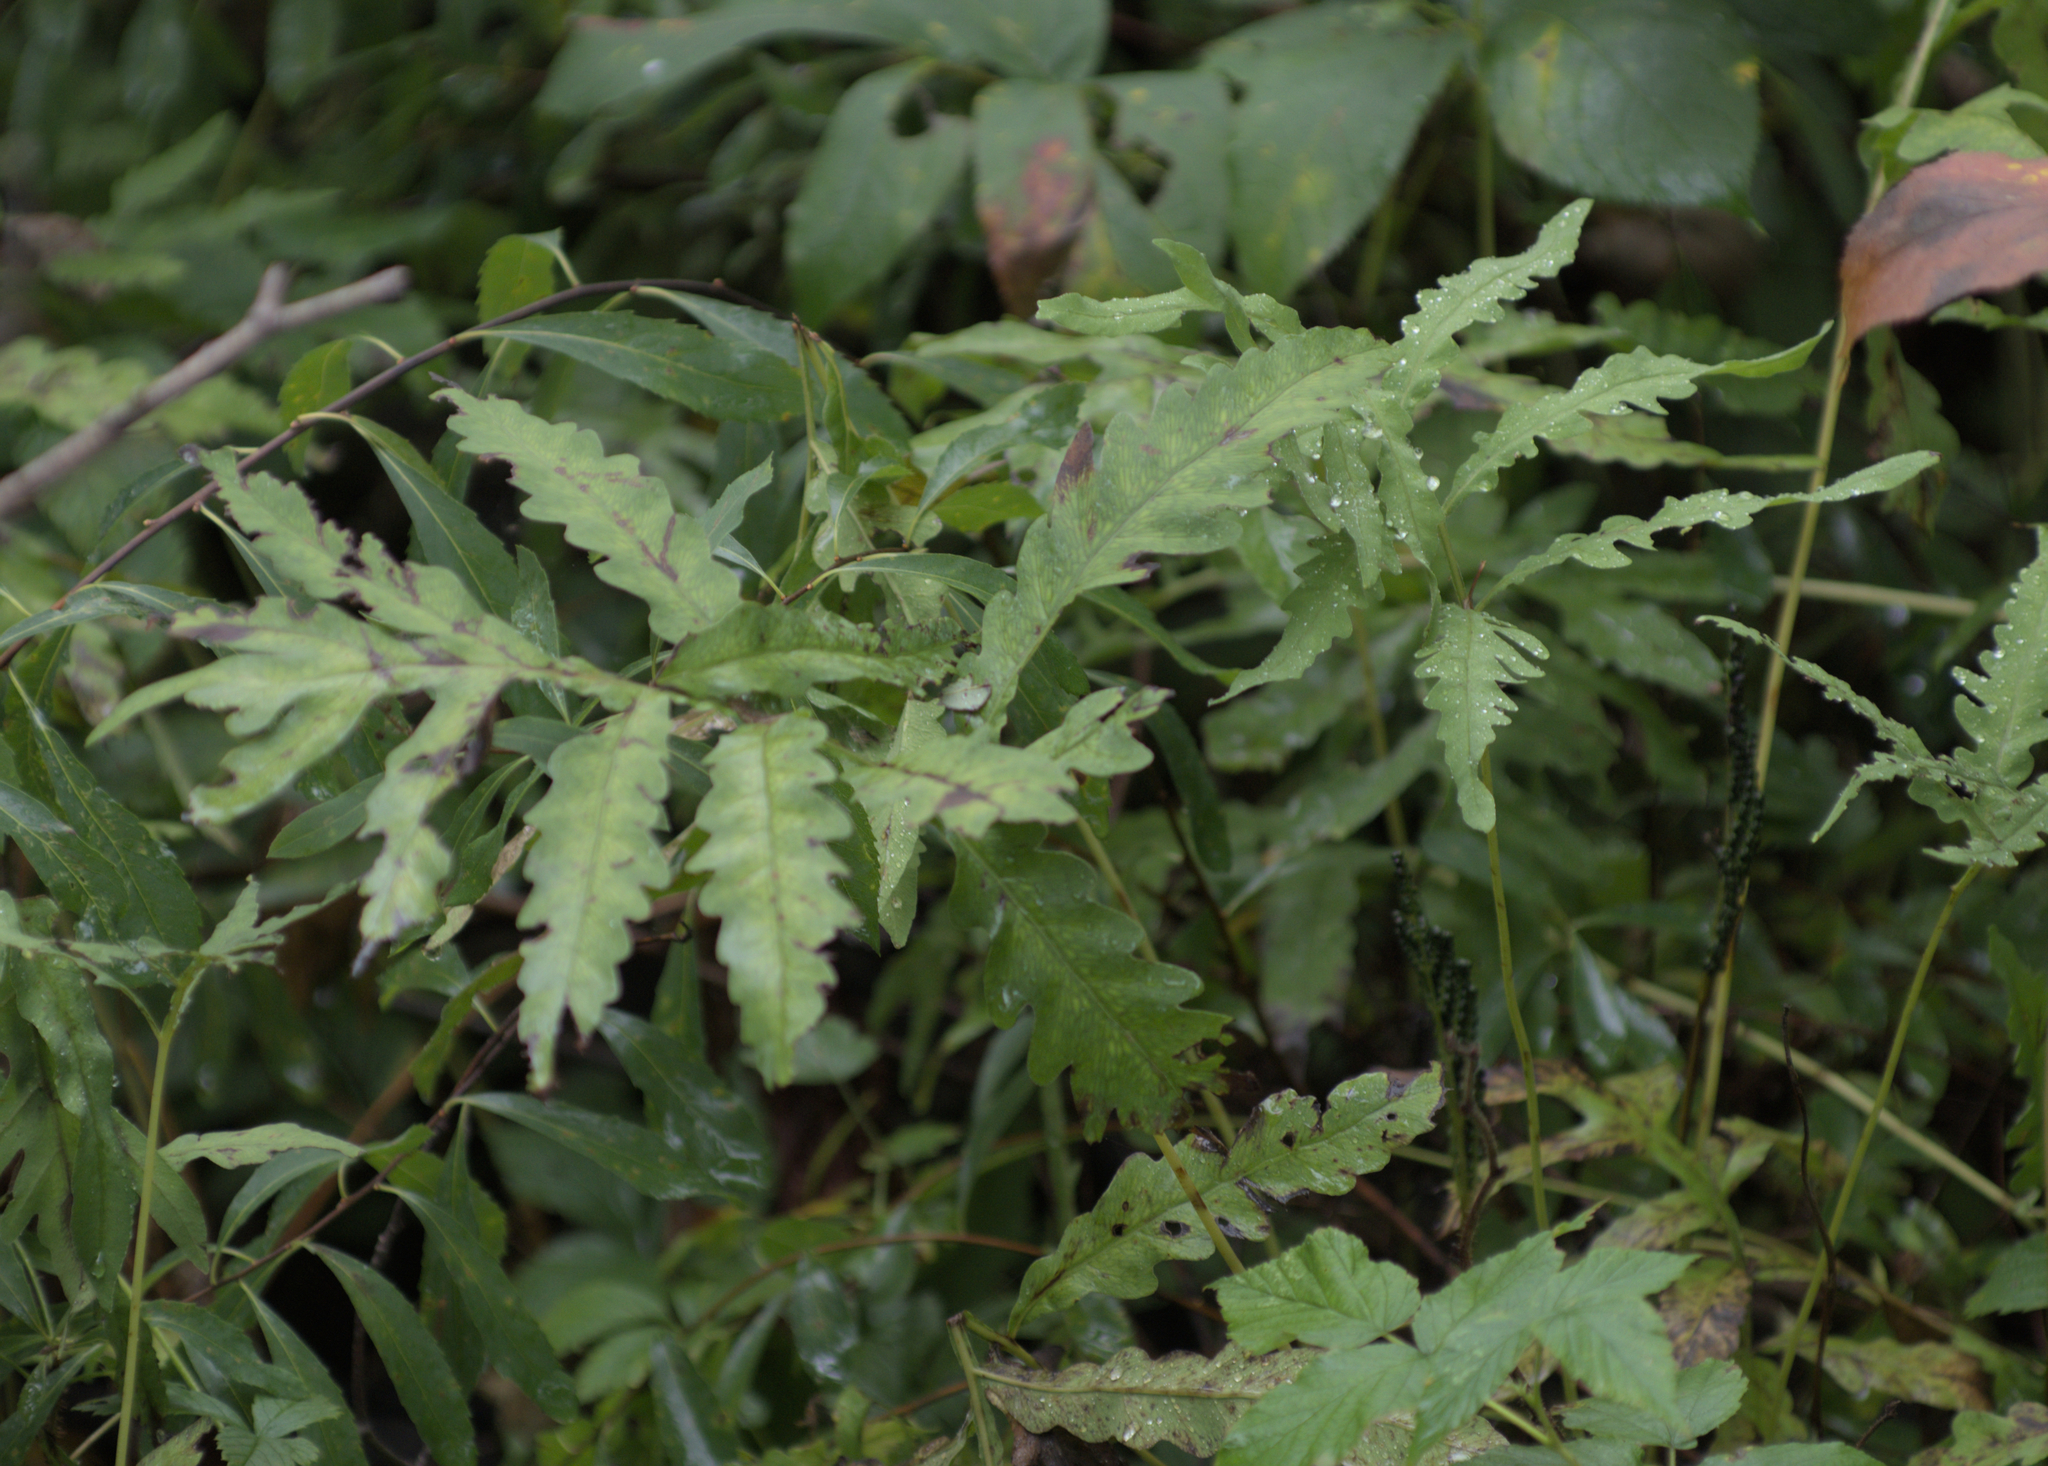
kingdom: Plantae
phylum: Tracheophyta
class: Polypodiopsida
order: Polypodiales
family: Onocleaceae
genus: Onoclea
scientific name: Onoclea sensibilis
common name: Sensitive fern
